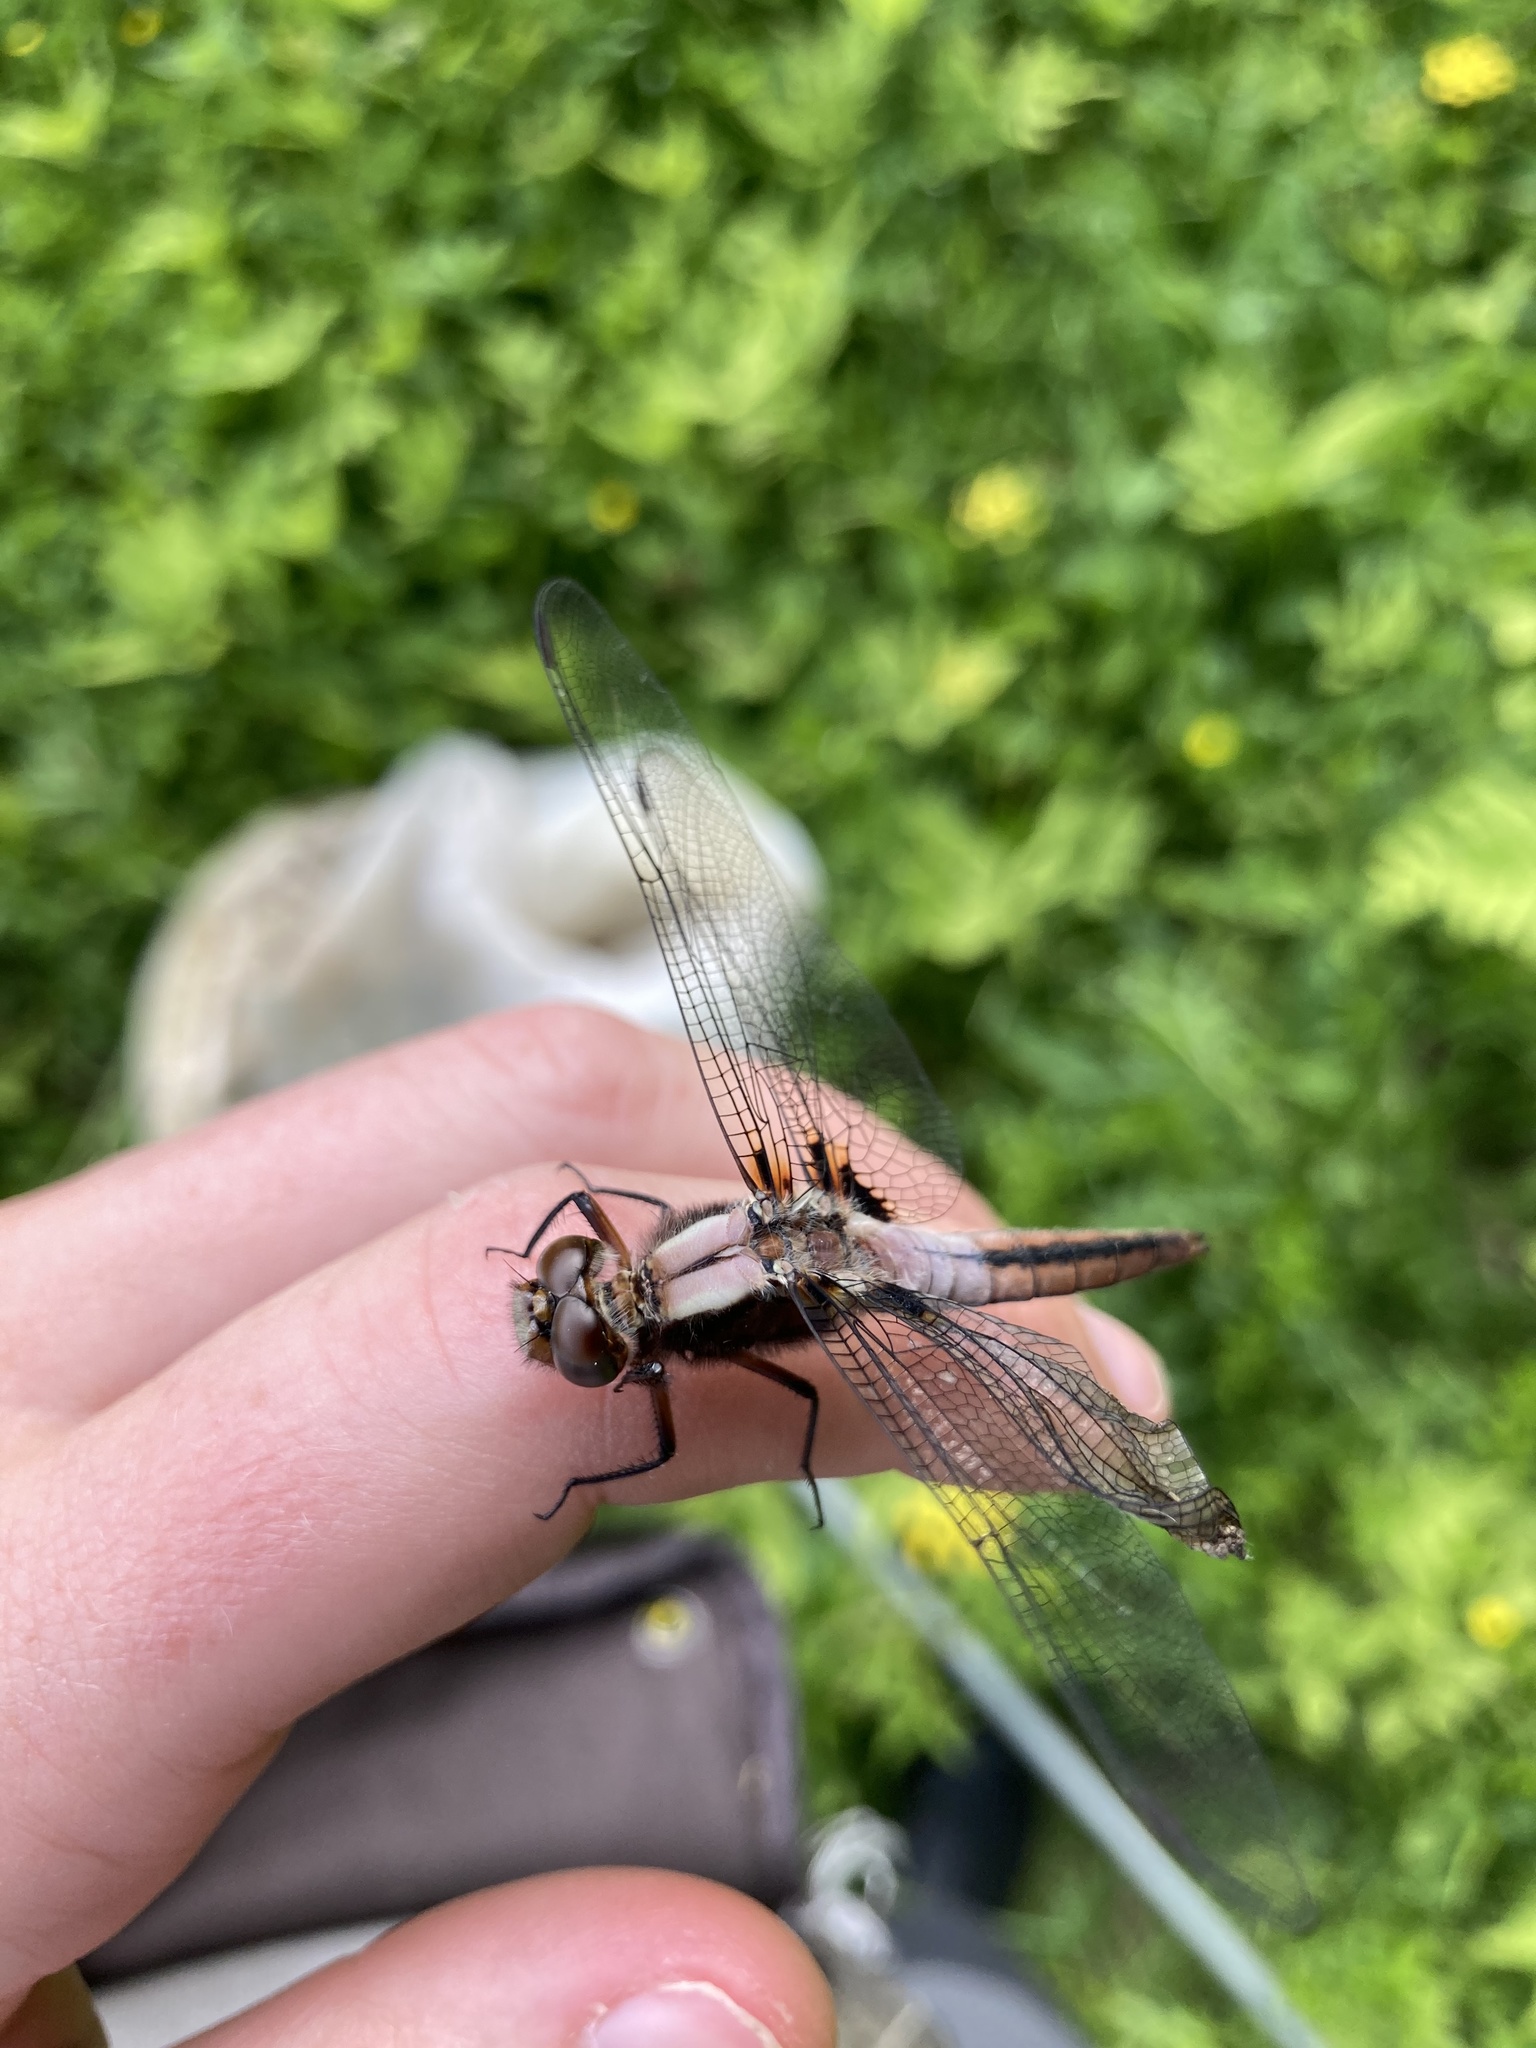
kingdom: Animalia
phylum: Arthropoda
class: Insecta
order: Odonata
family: Libellulidae
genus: Ladona
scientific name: Ladona julia
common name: Chalk-fronted corporal
